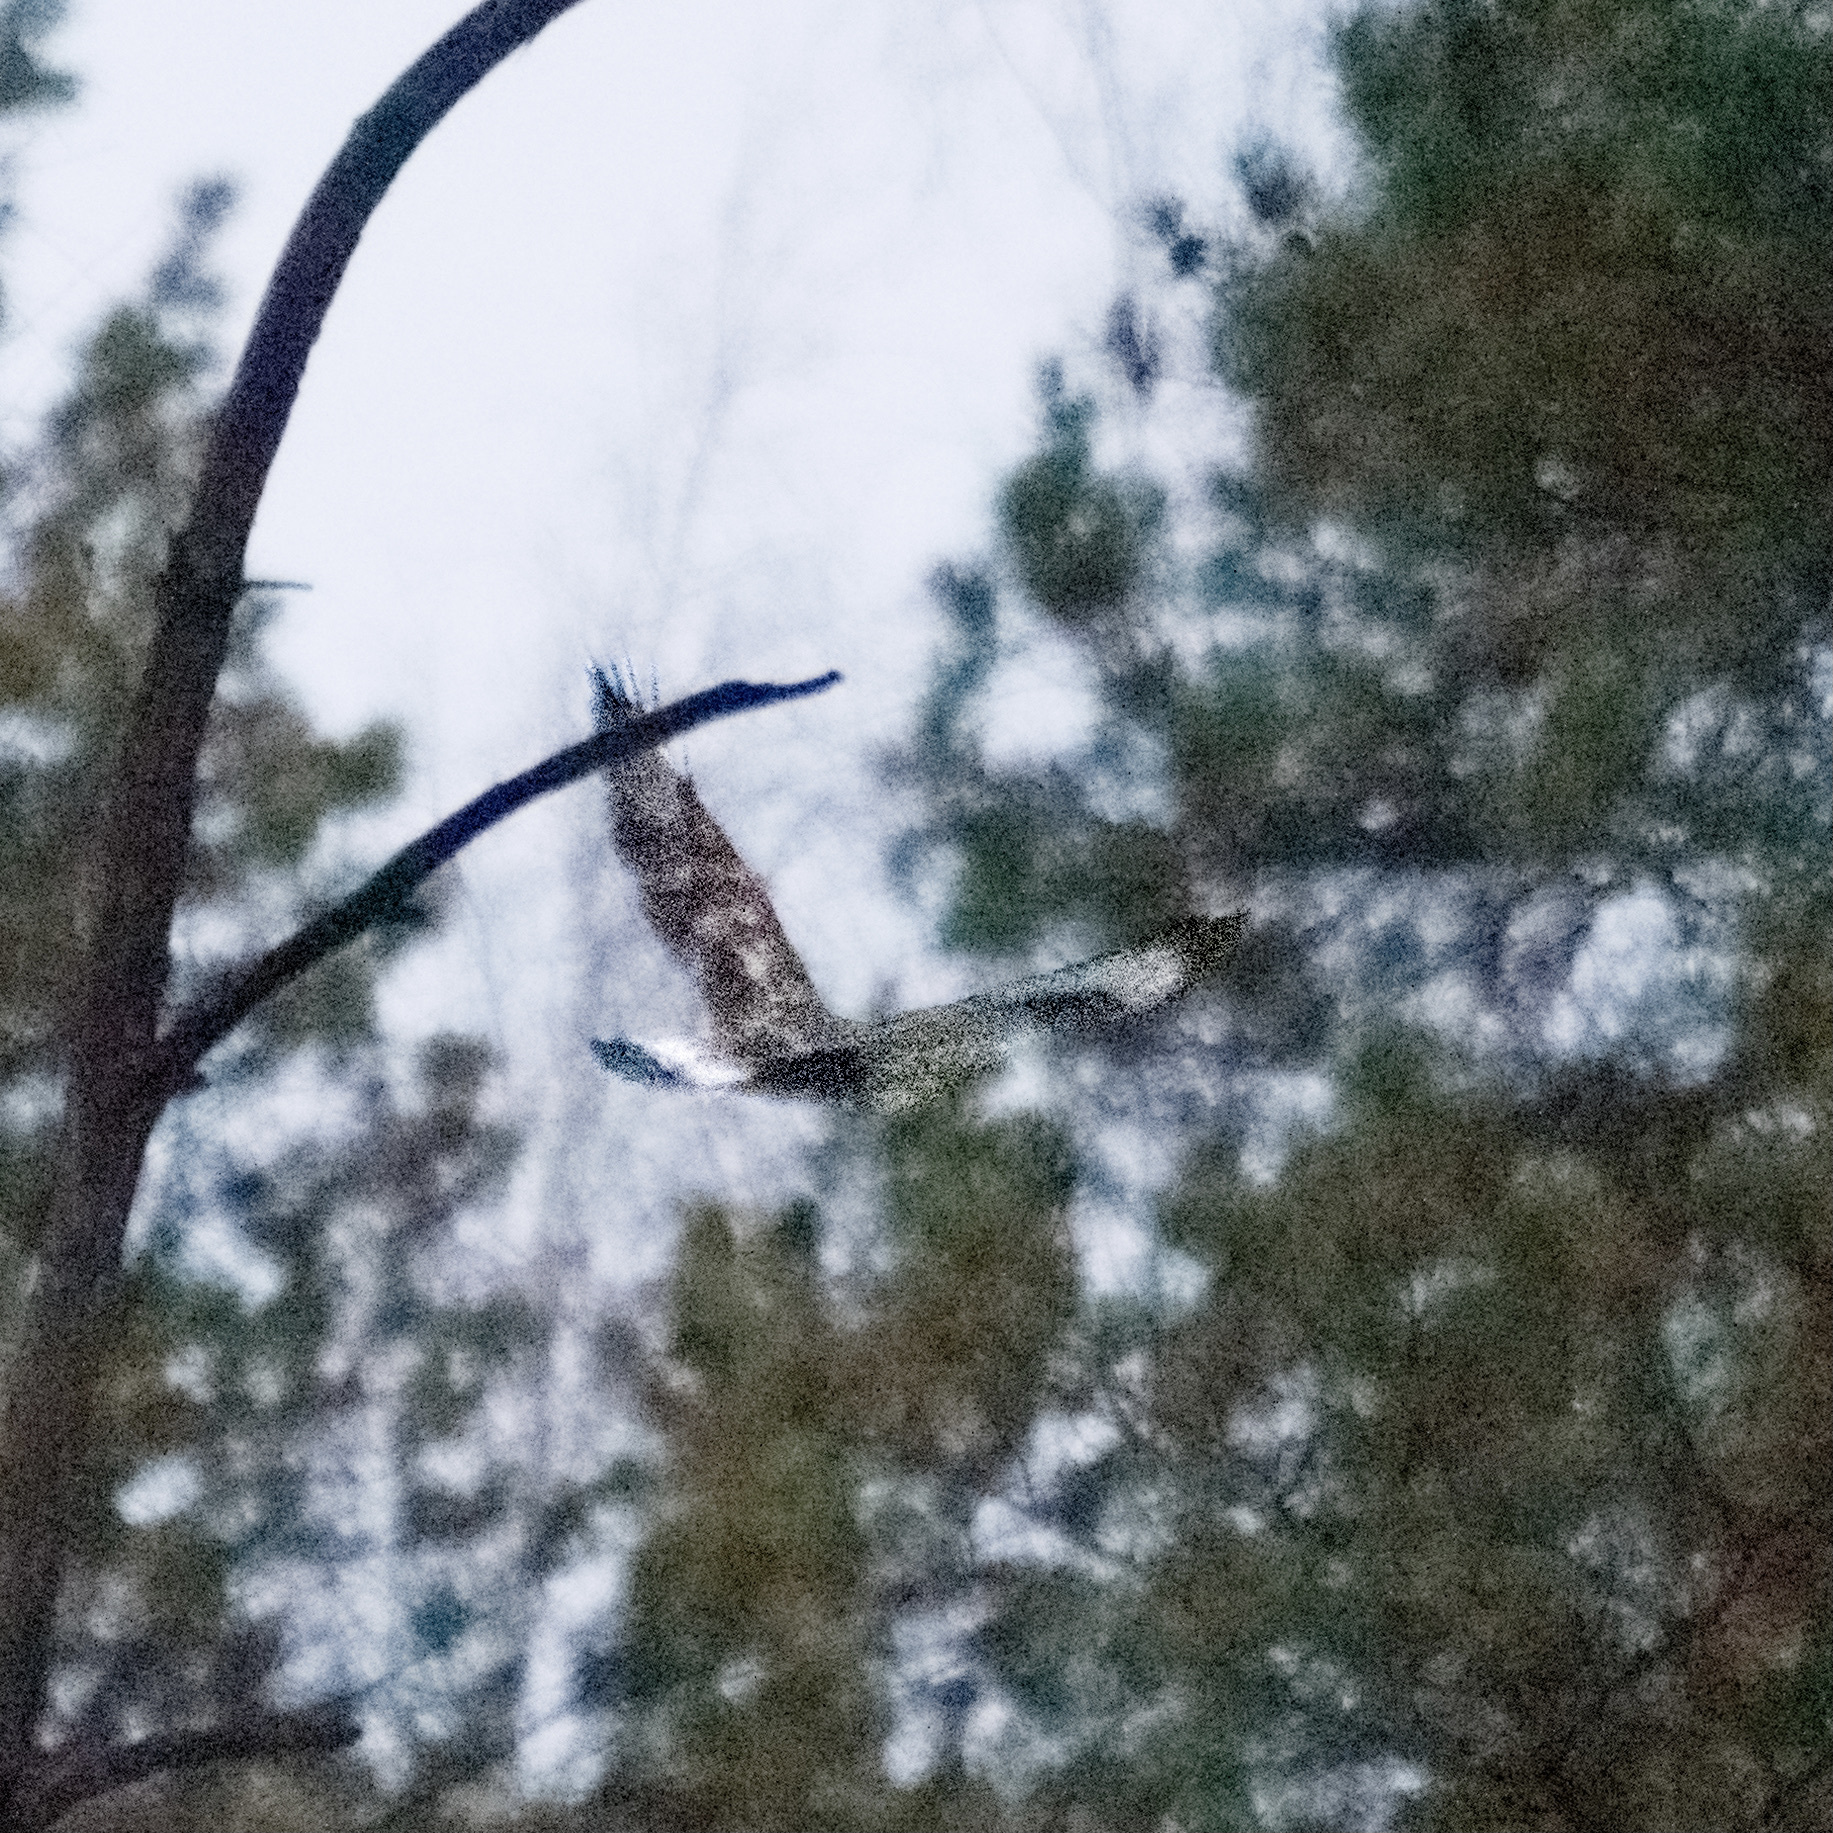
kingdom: Animalia
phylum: Chordata
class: Aves
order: Accipitriformes
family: Accipitridae
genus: Buteo
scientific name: Buteo lagopus
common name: Rough-legged buzzard
